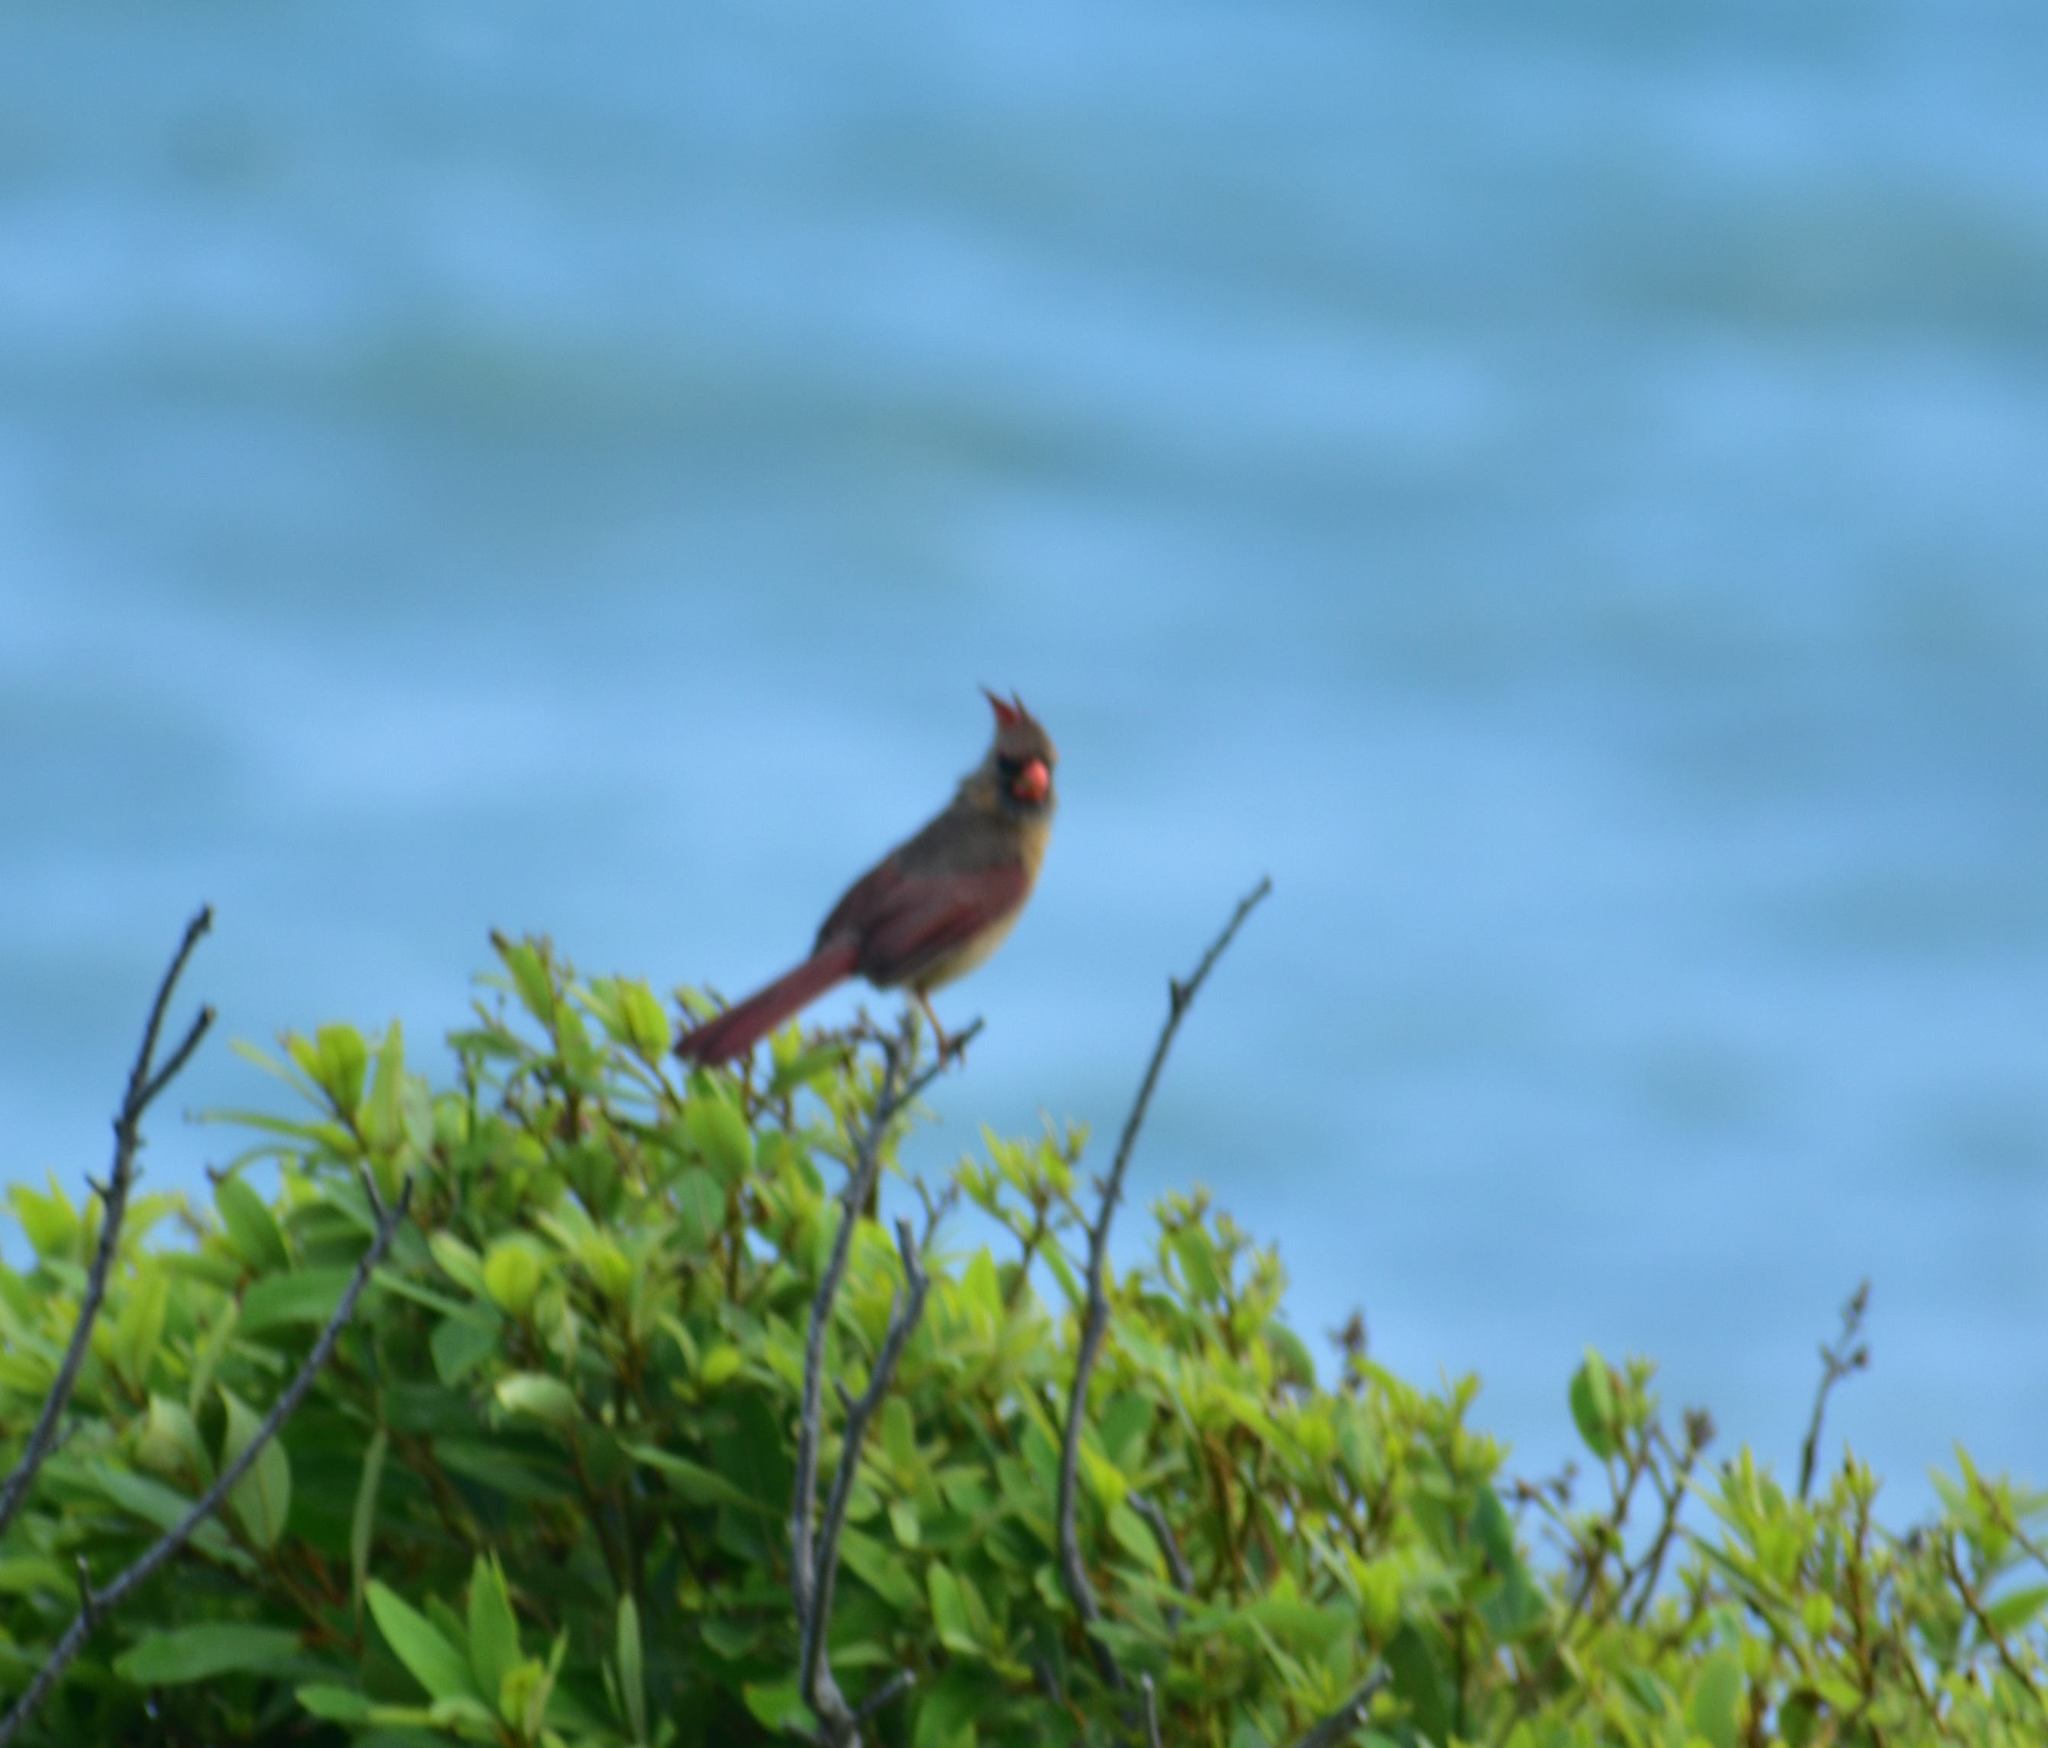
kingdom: Animalia
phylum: Chordata
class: Aves
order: Passeriformes
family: Cardinalidae
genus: Cardinalis
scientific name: Cardinalis cardinalis
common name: Northern cardinal
